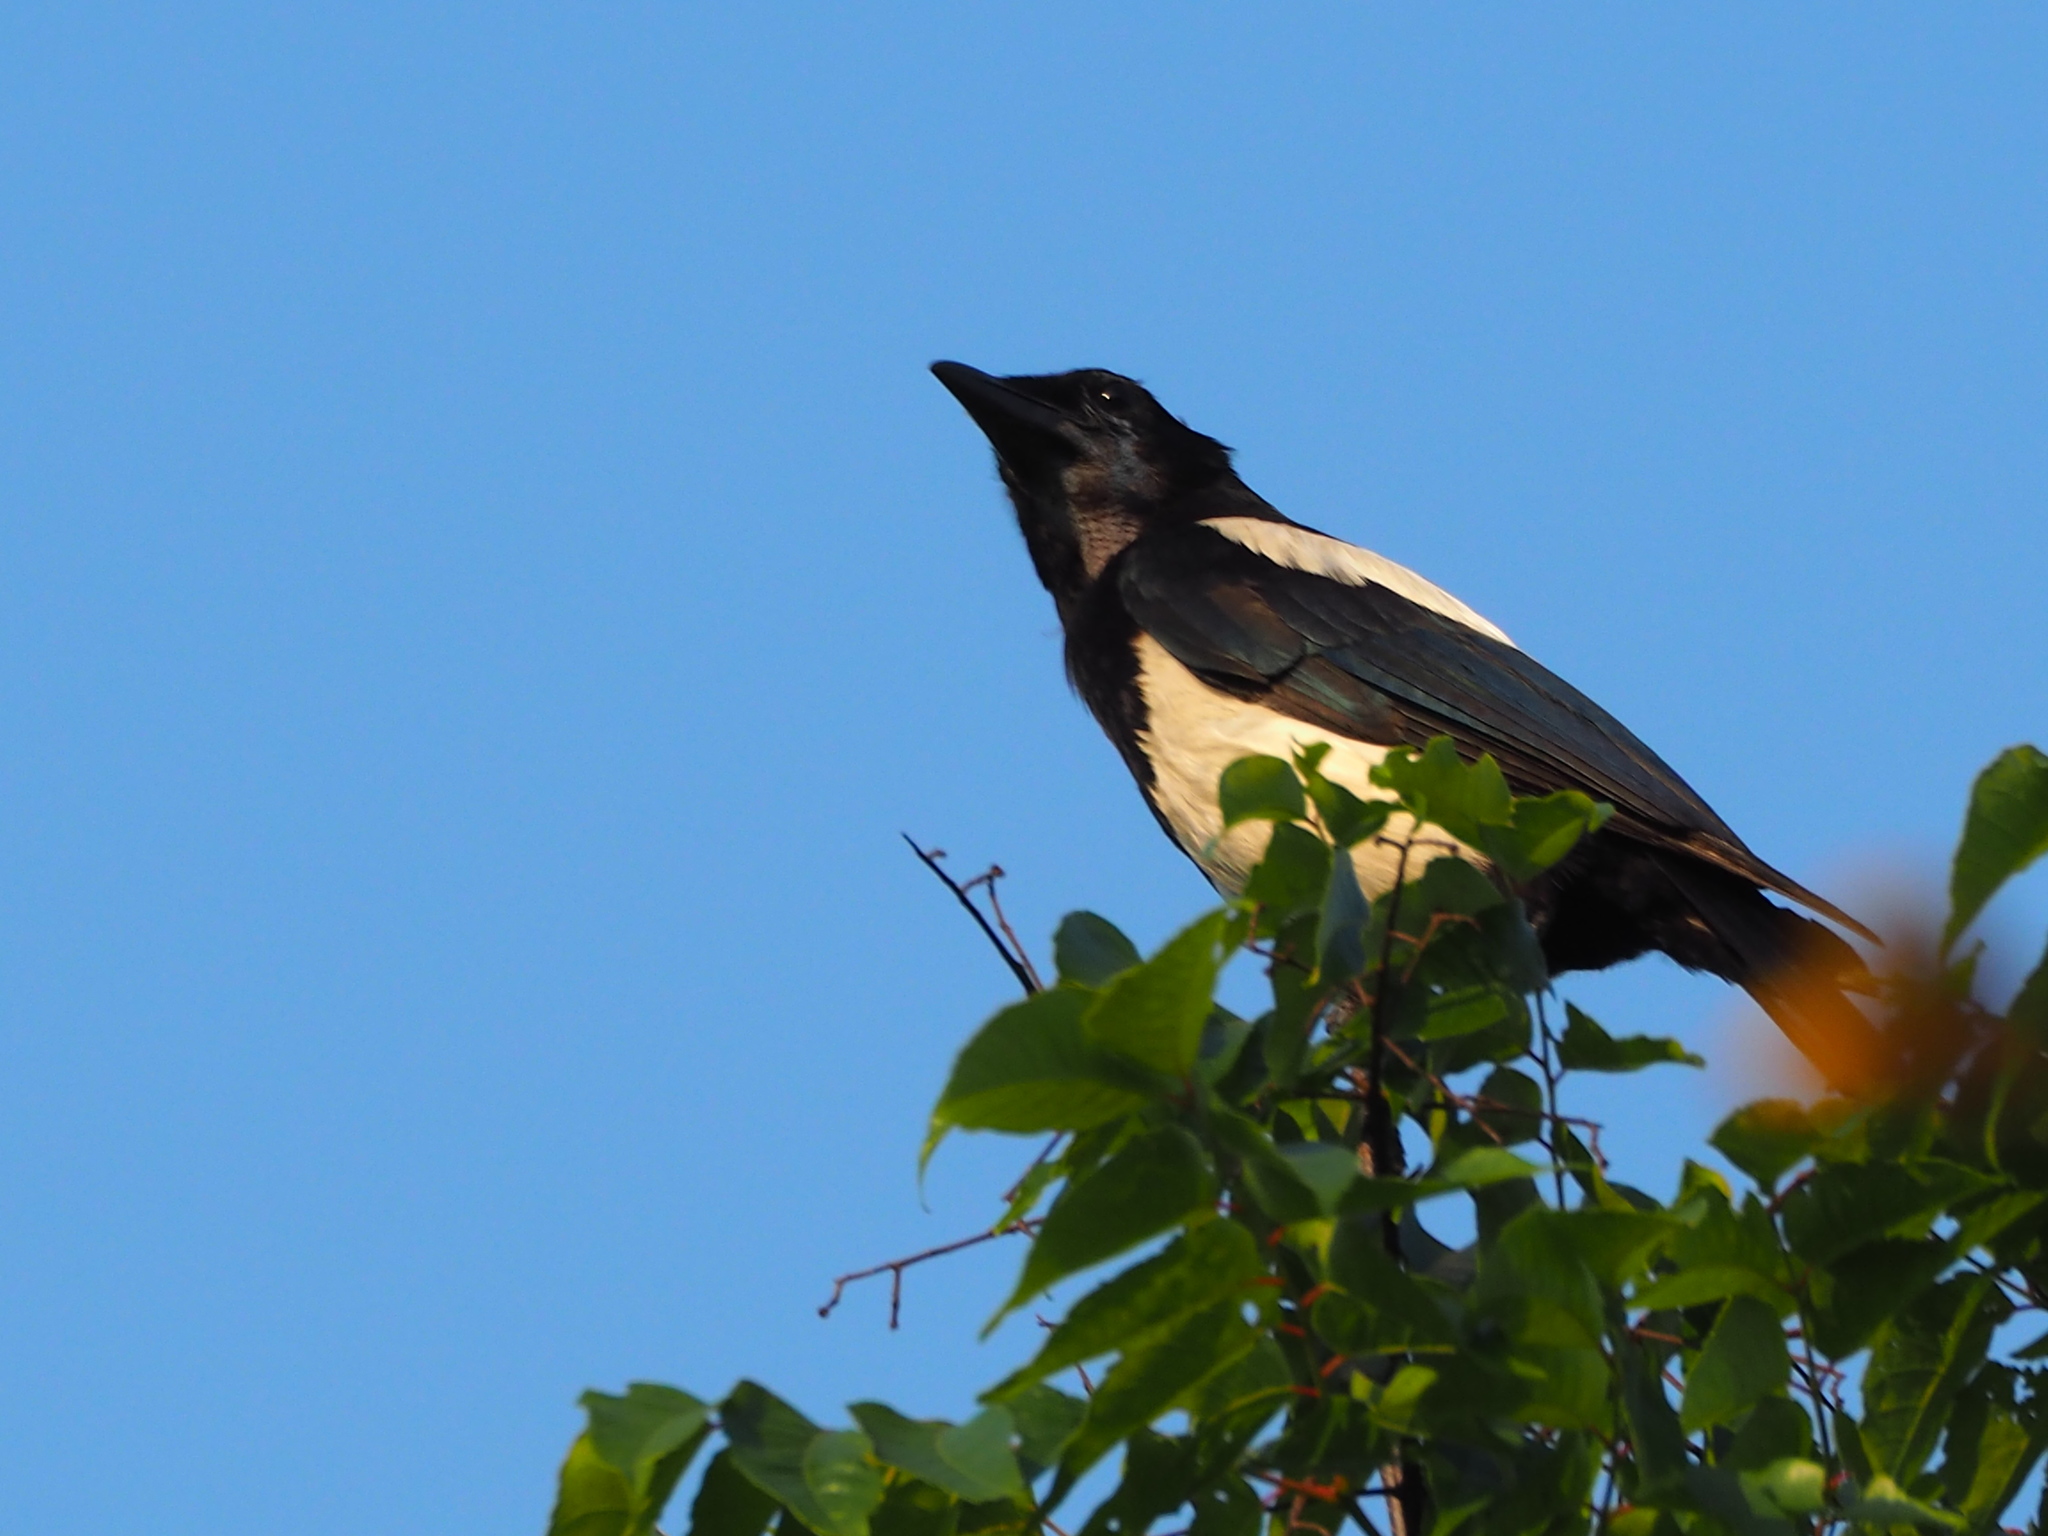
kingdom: Animalia
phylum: Chordata
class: Aves
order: Passeriformes
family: Corvidae
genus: Pica
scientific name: Pica serica
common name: Oriental magpie
